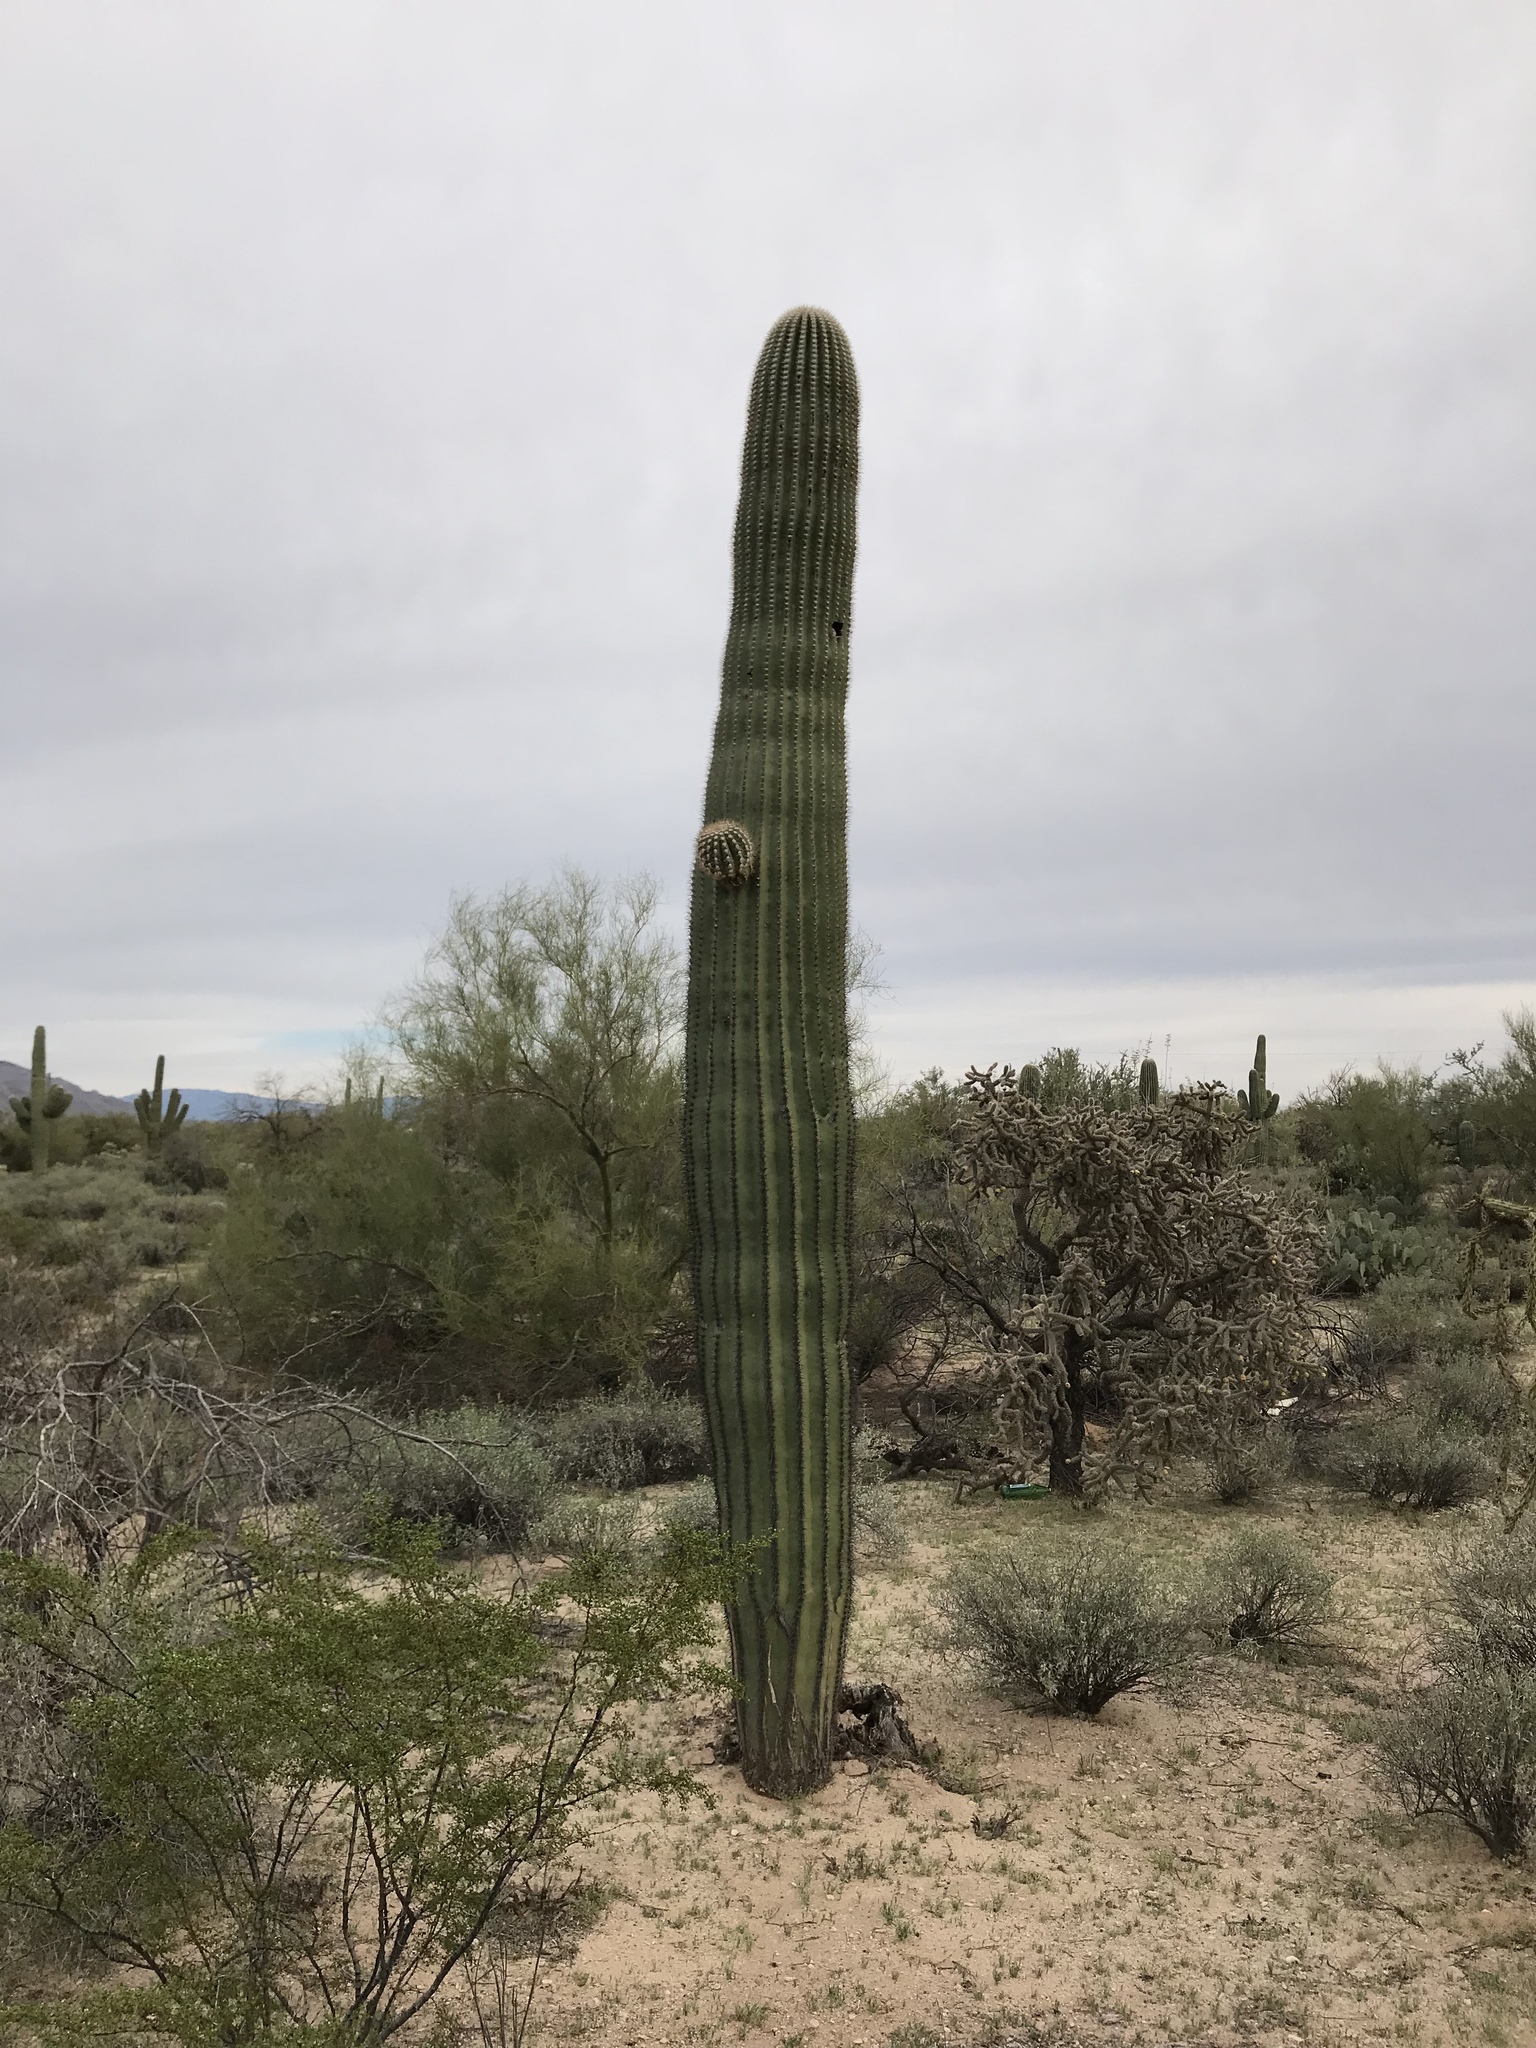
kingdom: Plantae
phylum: Tracheophyta
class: Magnoliopsida
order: Caryophyllales
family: Cactaceae
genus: Carnegiea
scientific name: Carnegiea gigantea
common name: Saguaro
